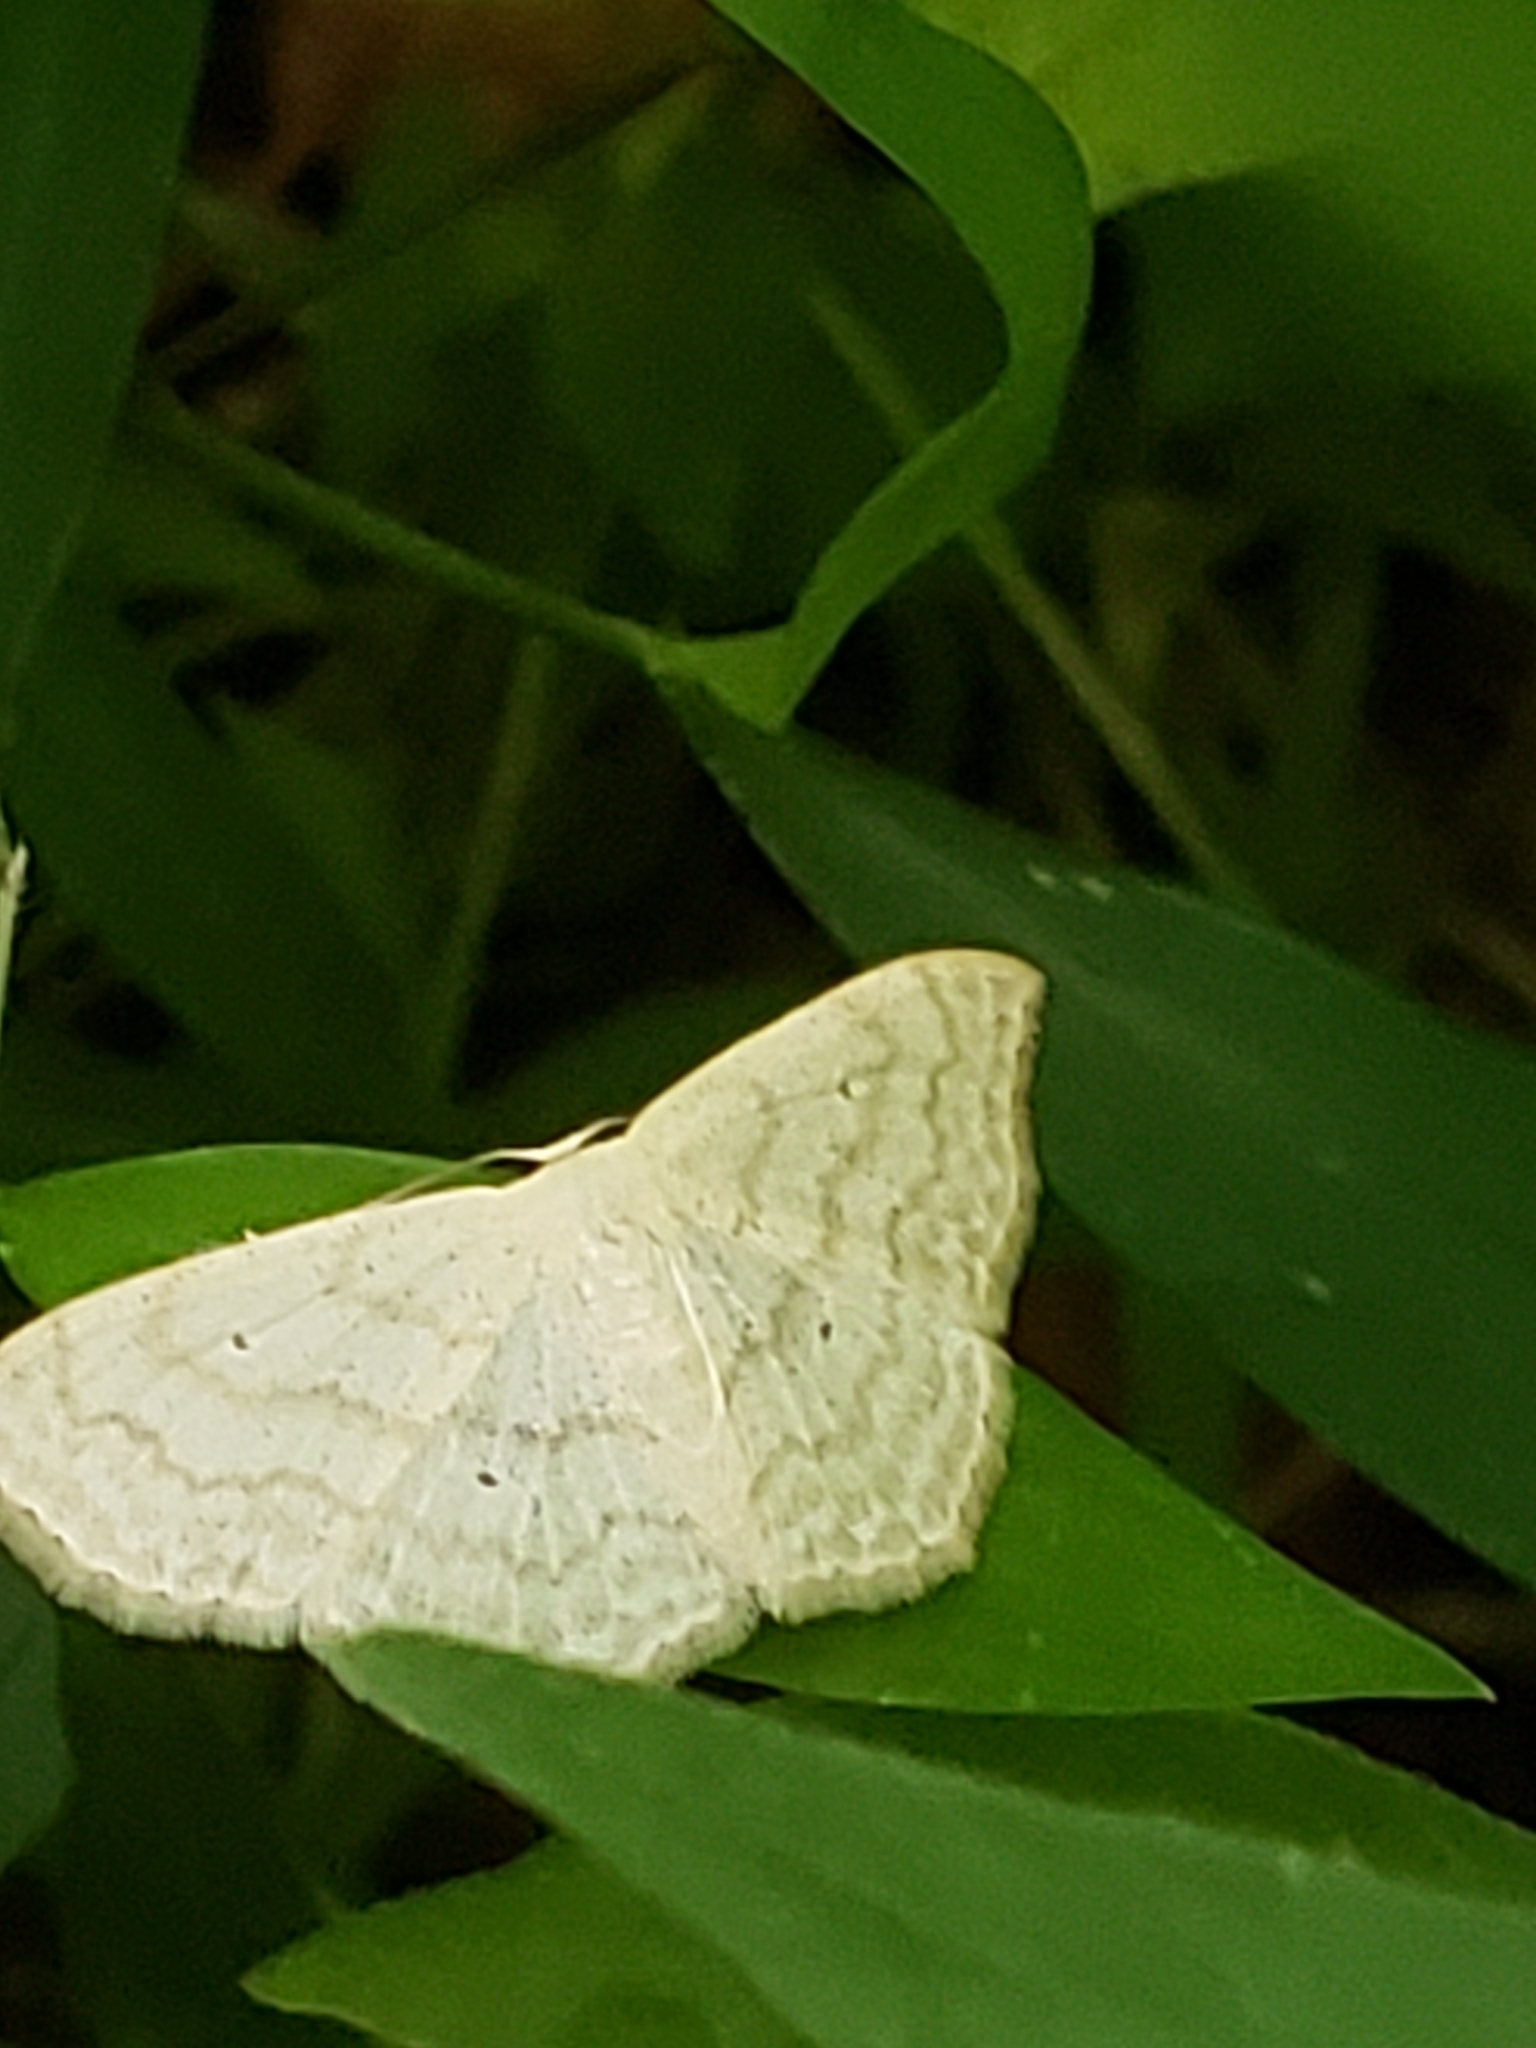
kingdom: Animalia
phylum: Arthropoda
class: Insecta
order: Lepidoptera
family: Geometridae
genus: Scopula
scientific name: Scopula limboundata
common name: Large lace border
